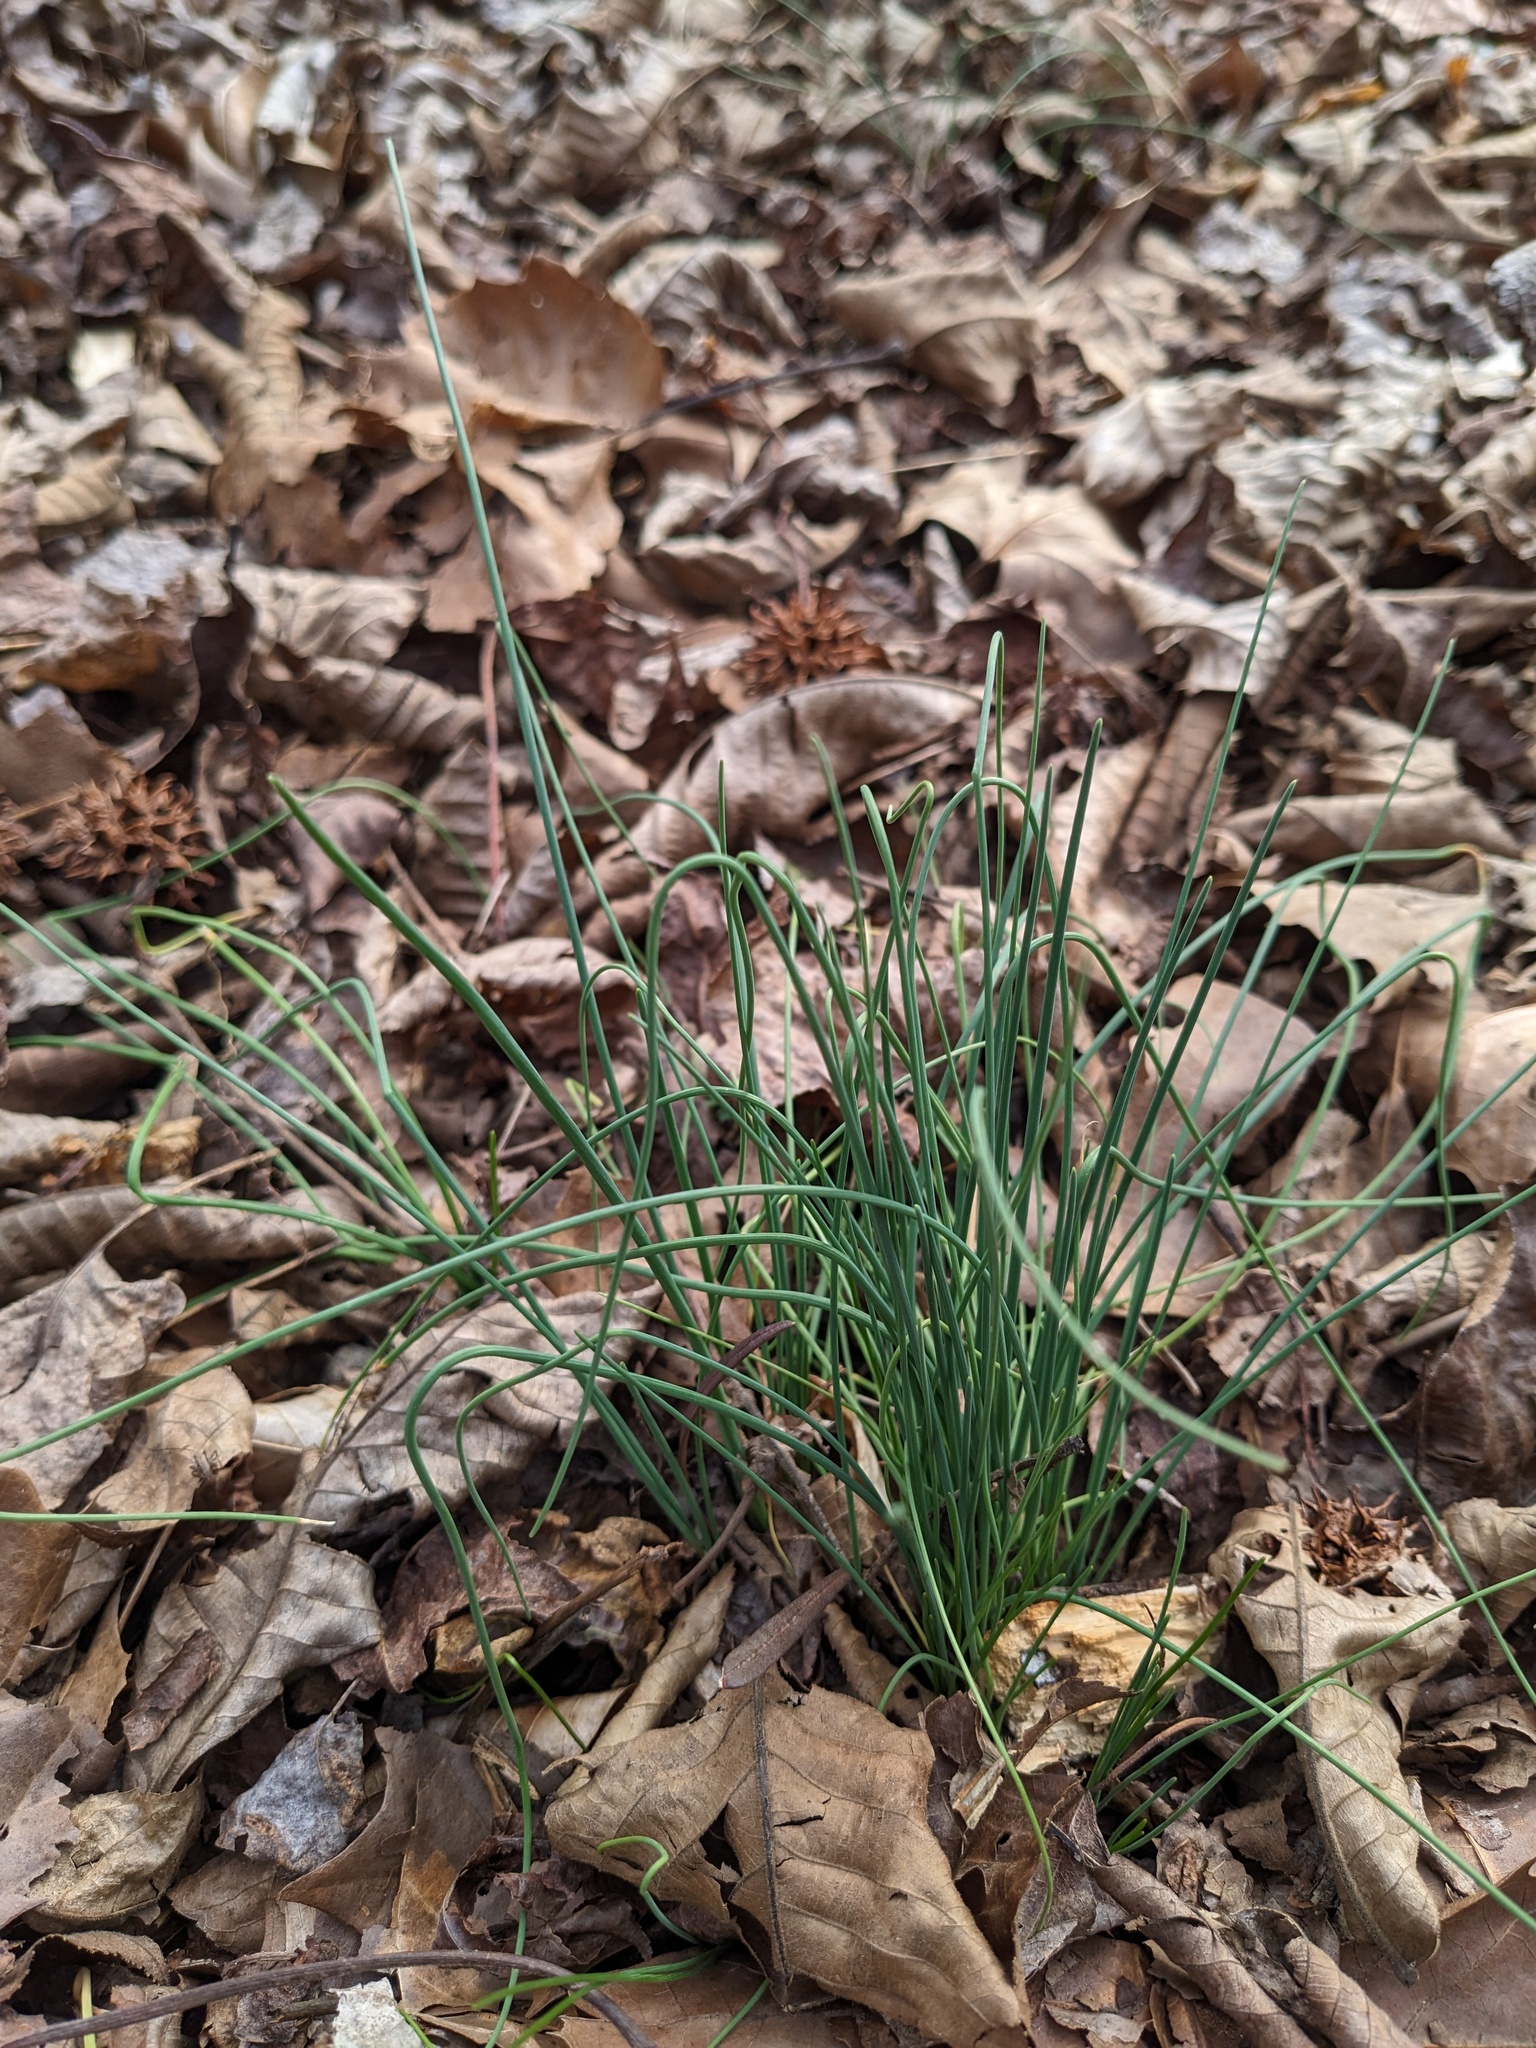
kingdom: Plantae
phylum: Tracheophyta
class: Liliopsida
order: Asparagales
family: Amaryllidaceae
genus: Allium
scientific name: Allium vineale
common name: Crow garlic
